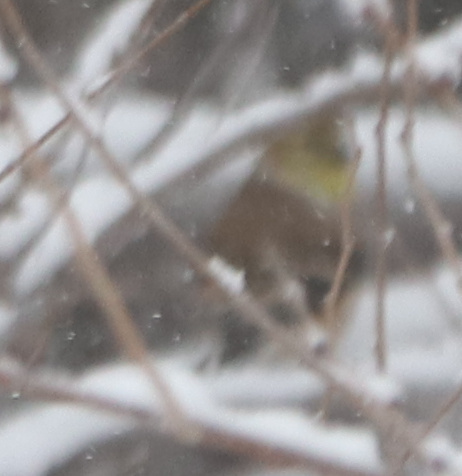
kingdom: Animalia
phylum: Chordata
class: Aves
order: Passeriformes
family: Fringillidae
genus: Spinus
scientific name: Spinus tristis
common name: American goldfinch
